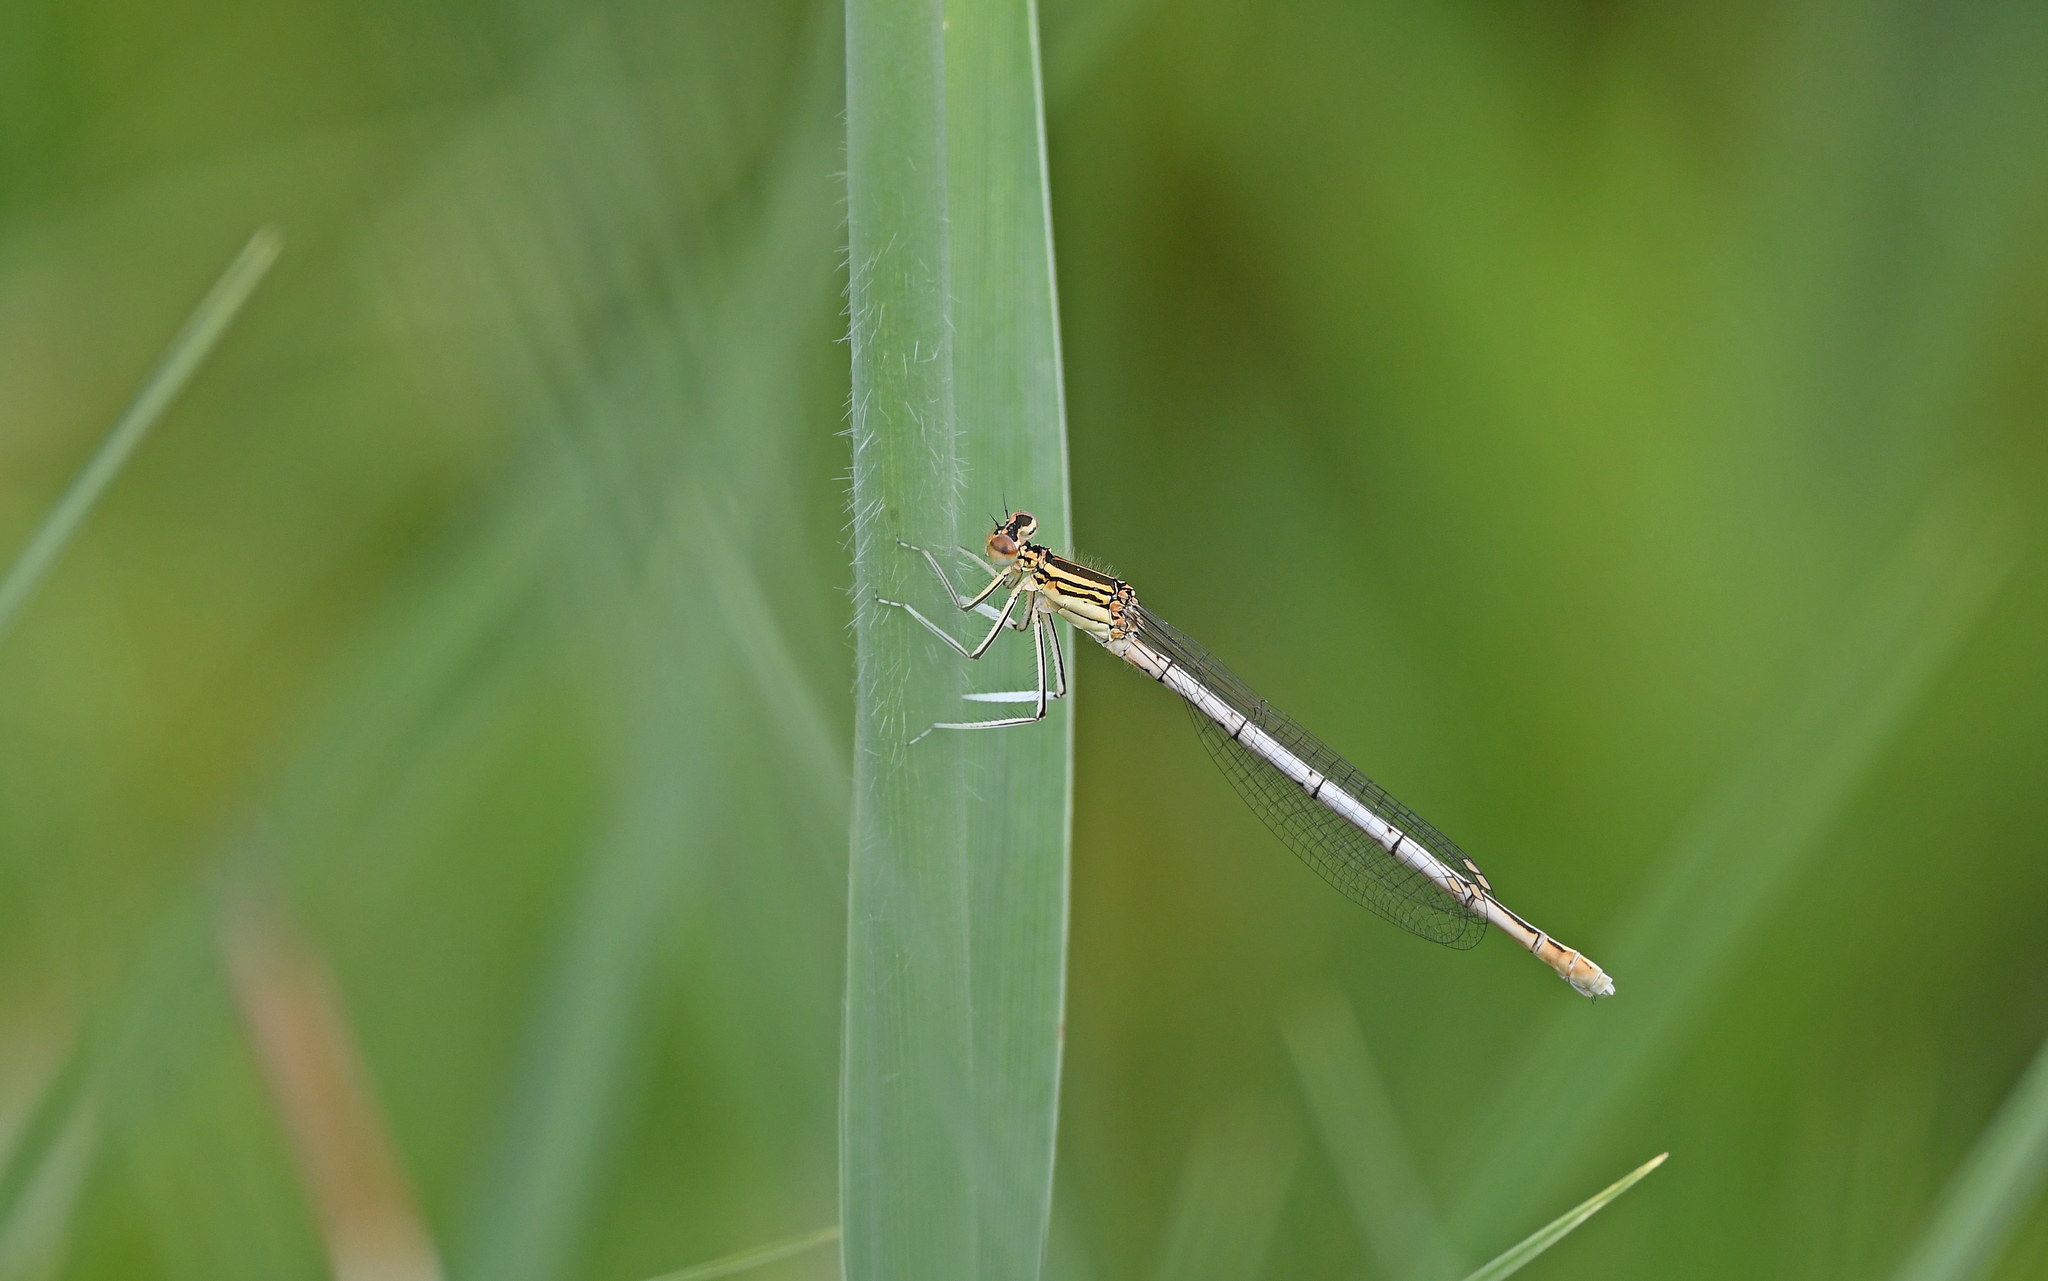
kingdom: Animalia
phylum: Arthropoda
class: Insecta
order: Odonata
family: Platycnemididae
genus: Platycnemis
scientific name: Platycnemis pennipes
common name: White-legged damselfly
